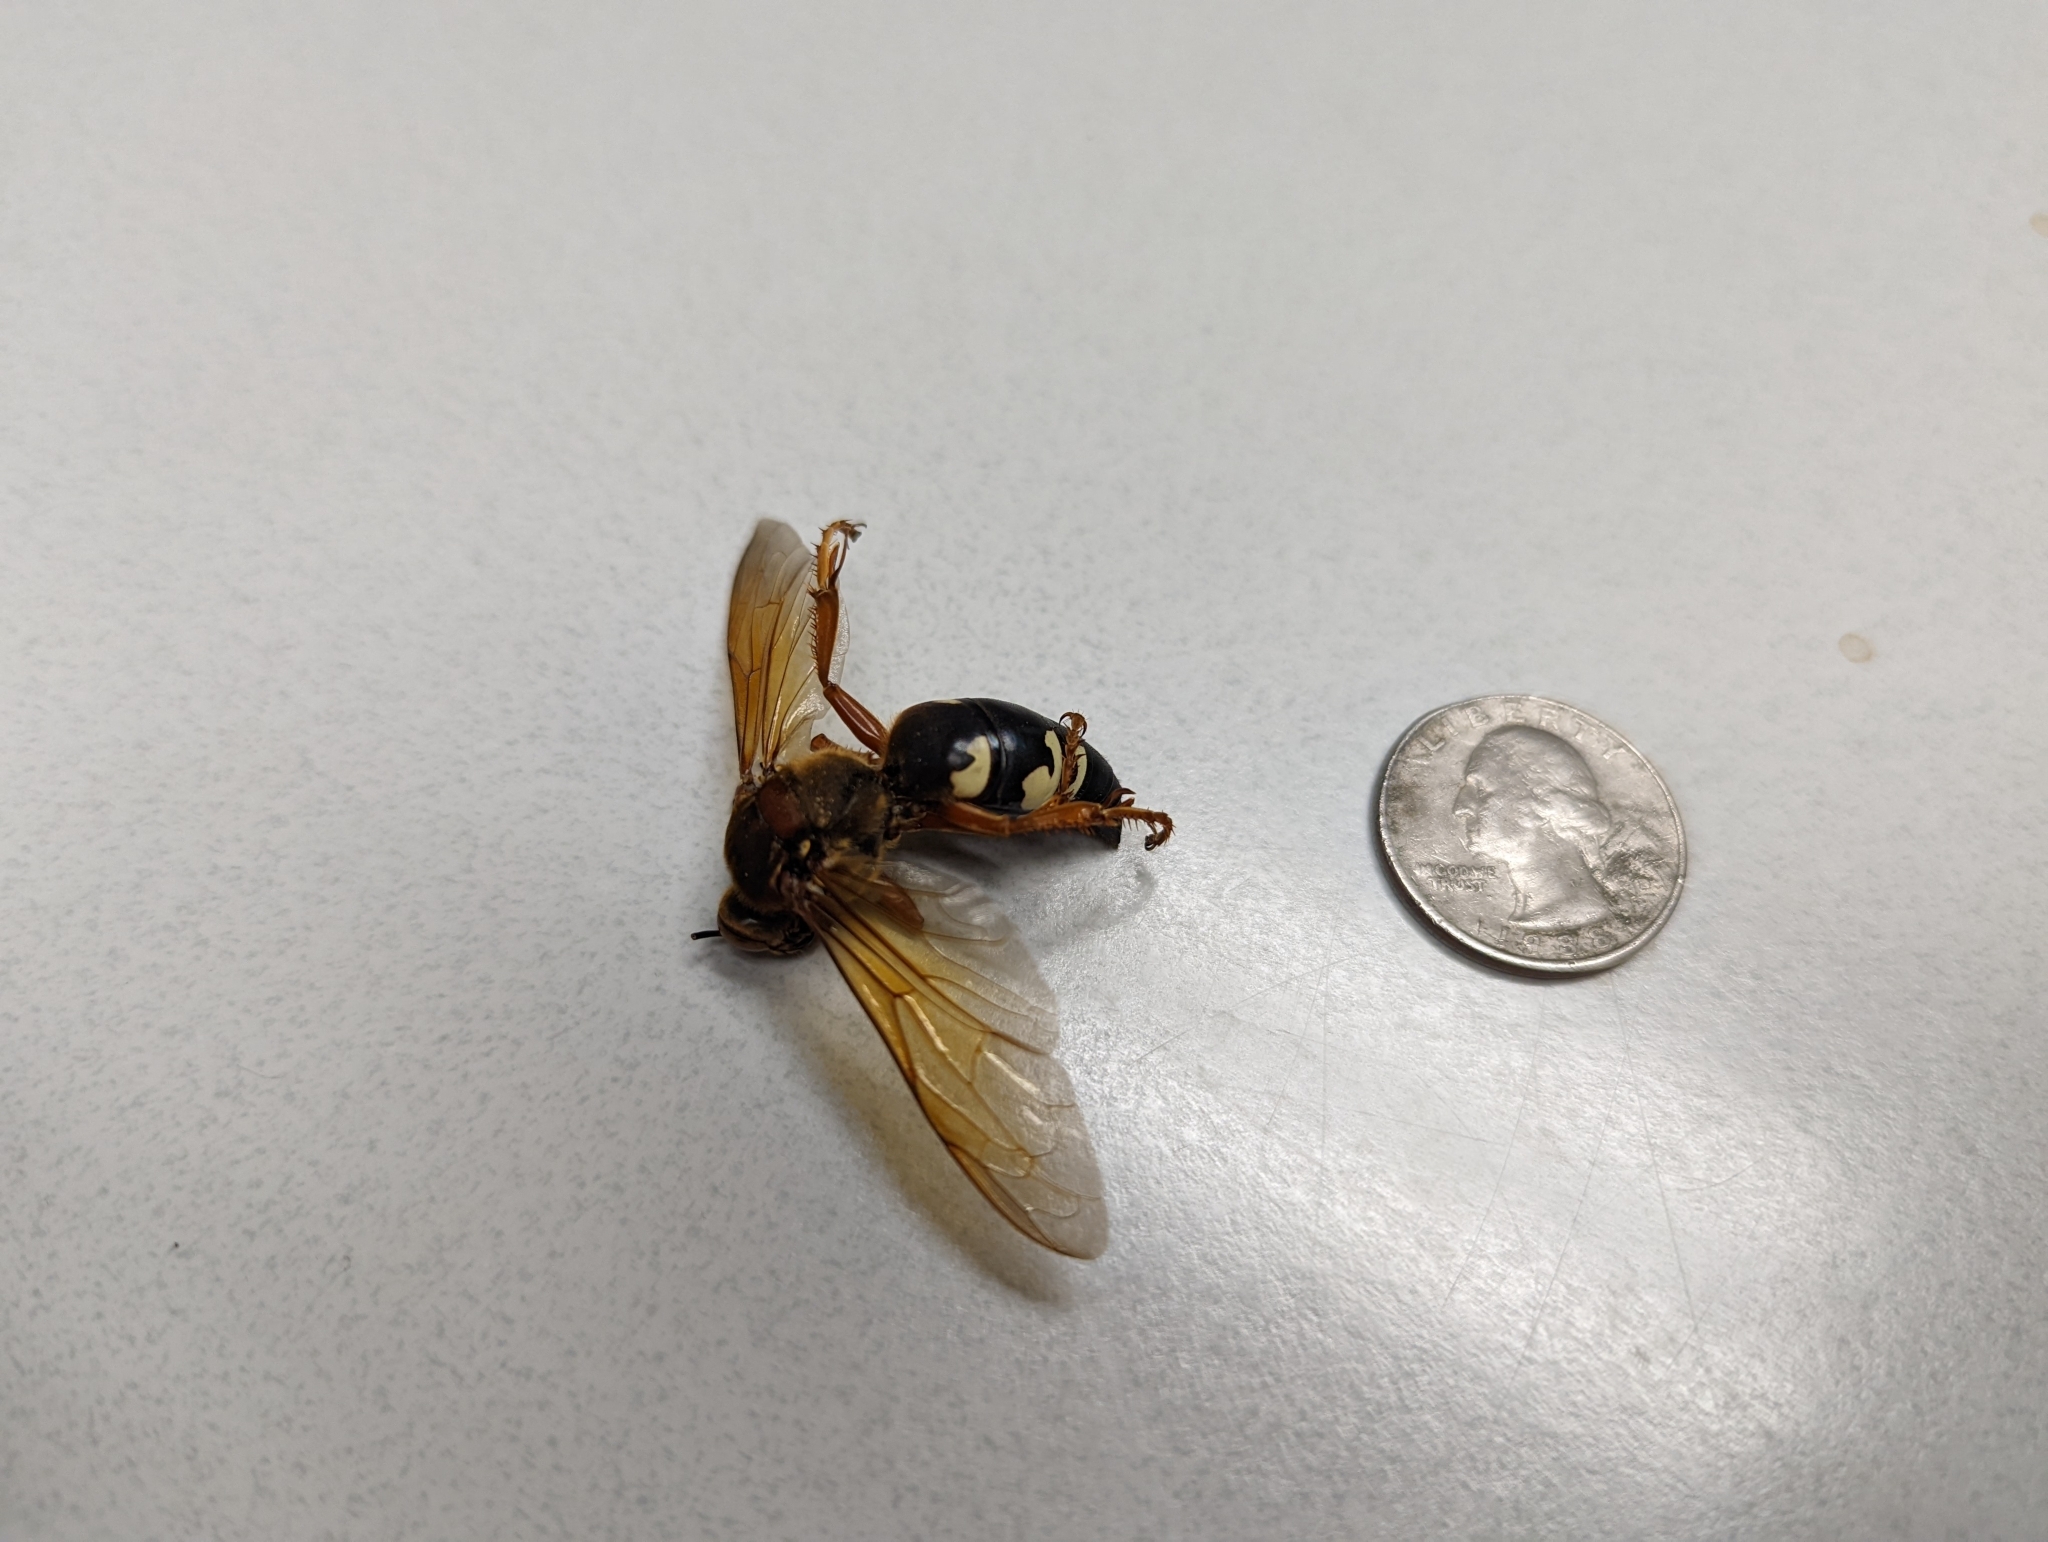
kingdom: Animalia
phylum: Arthropoda
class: Insecta
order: Hymenoptera
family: Crabronidae
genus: Sphecius
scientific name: Sphecius speciosus
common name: Cicada killer
